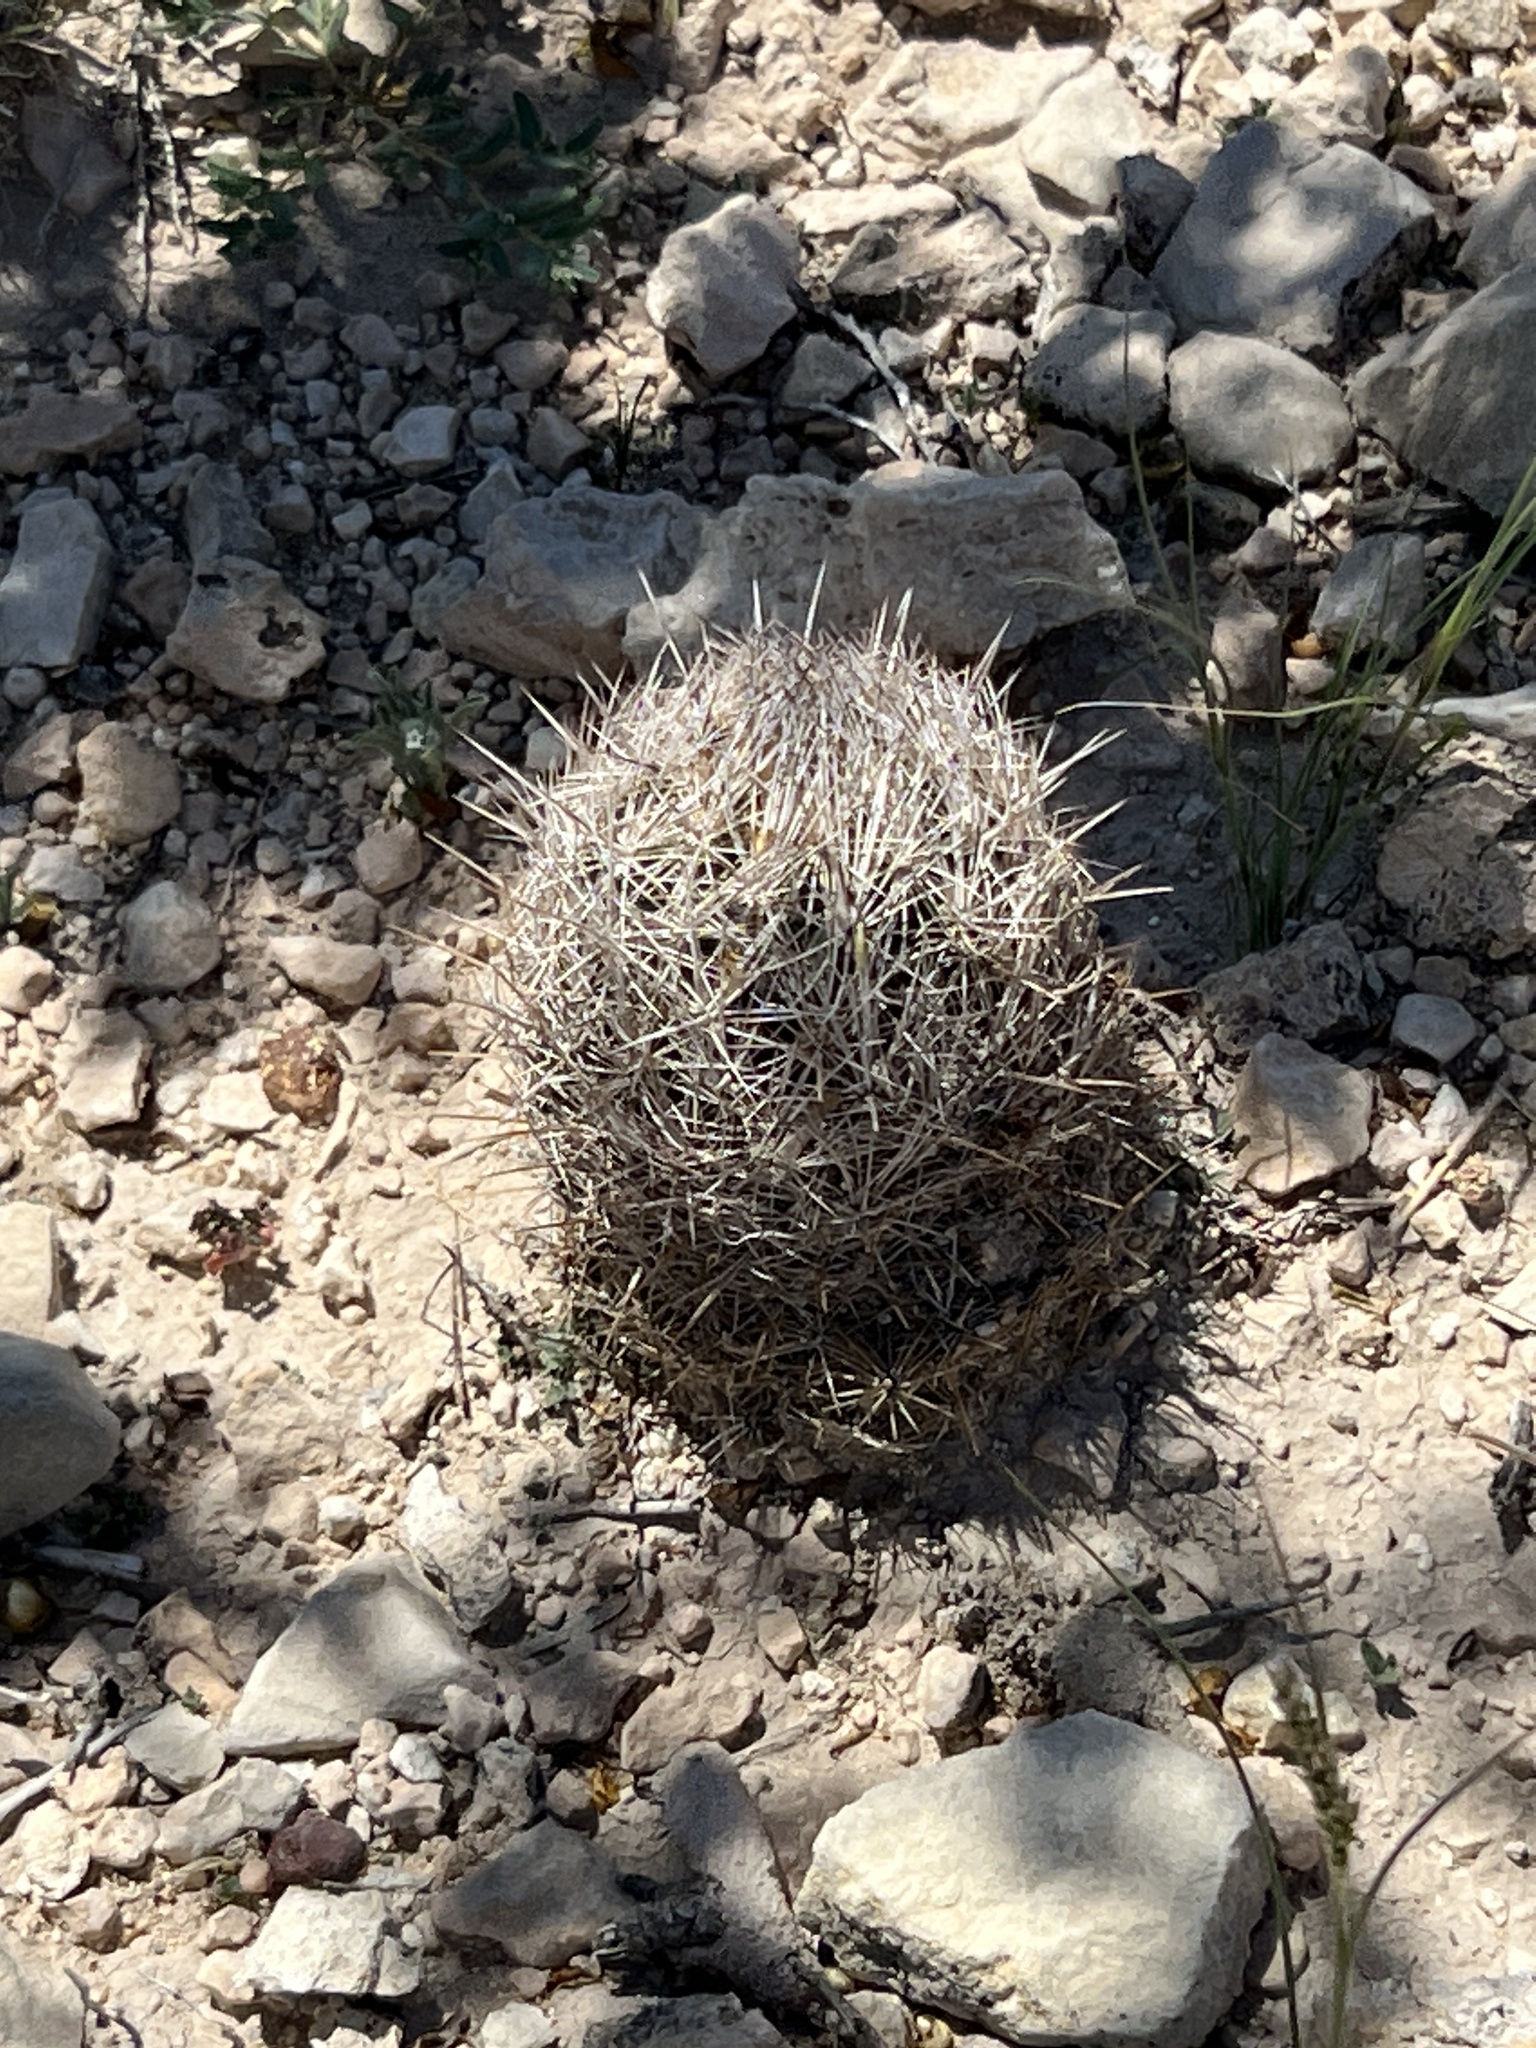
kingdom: Plantae
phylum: Tracheophyta
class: Magnoliopsida
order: Caryophyllales
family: Cactaceae
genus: Coryphantha
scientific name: Coryphantha echinus
